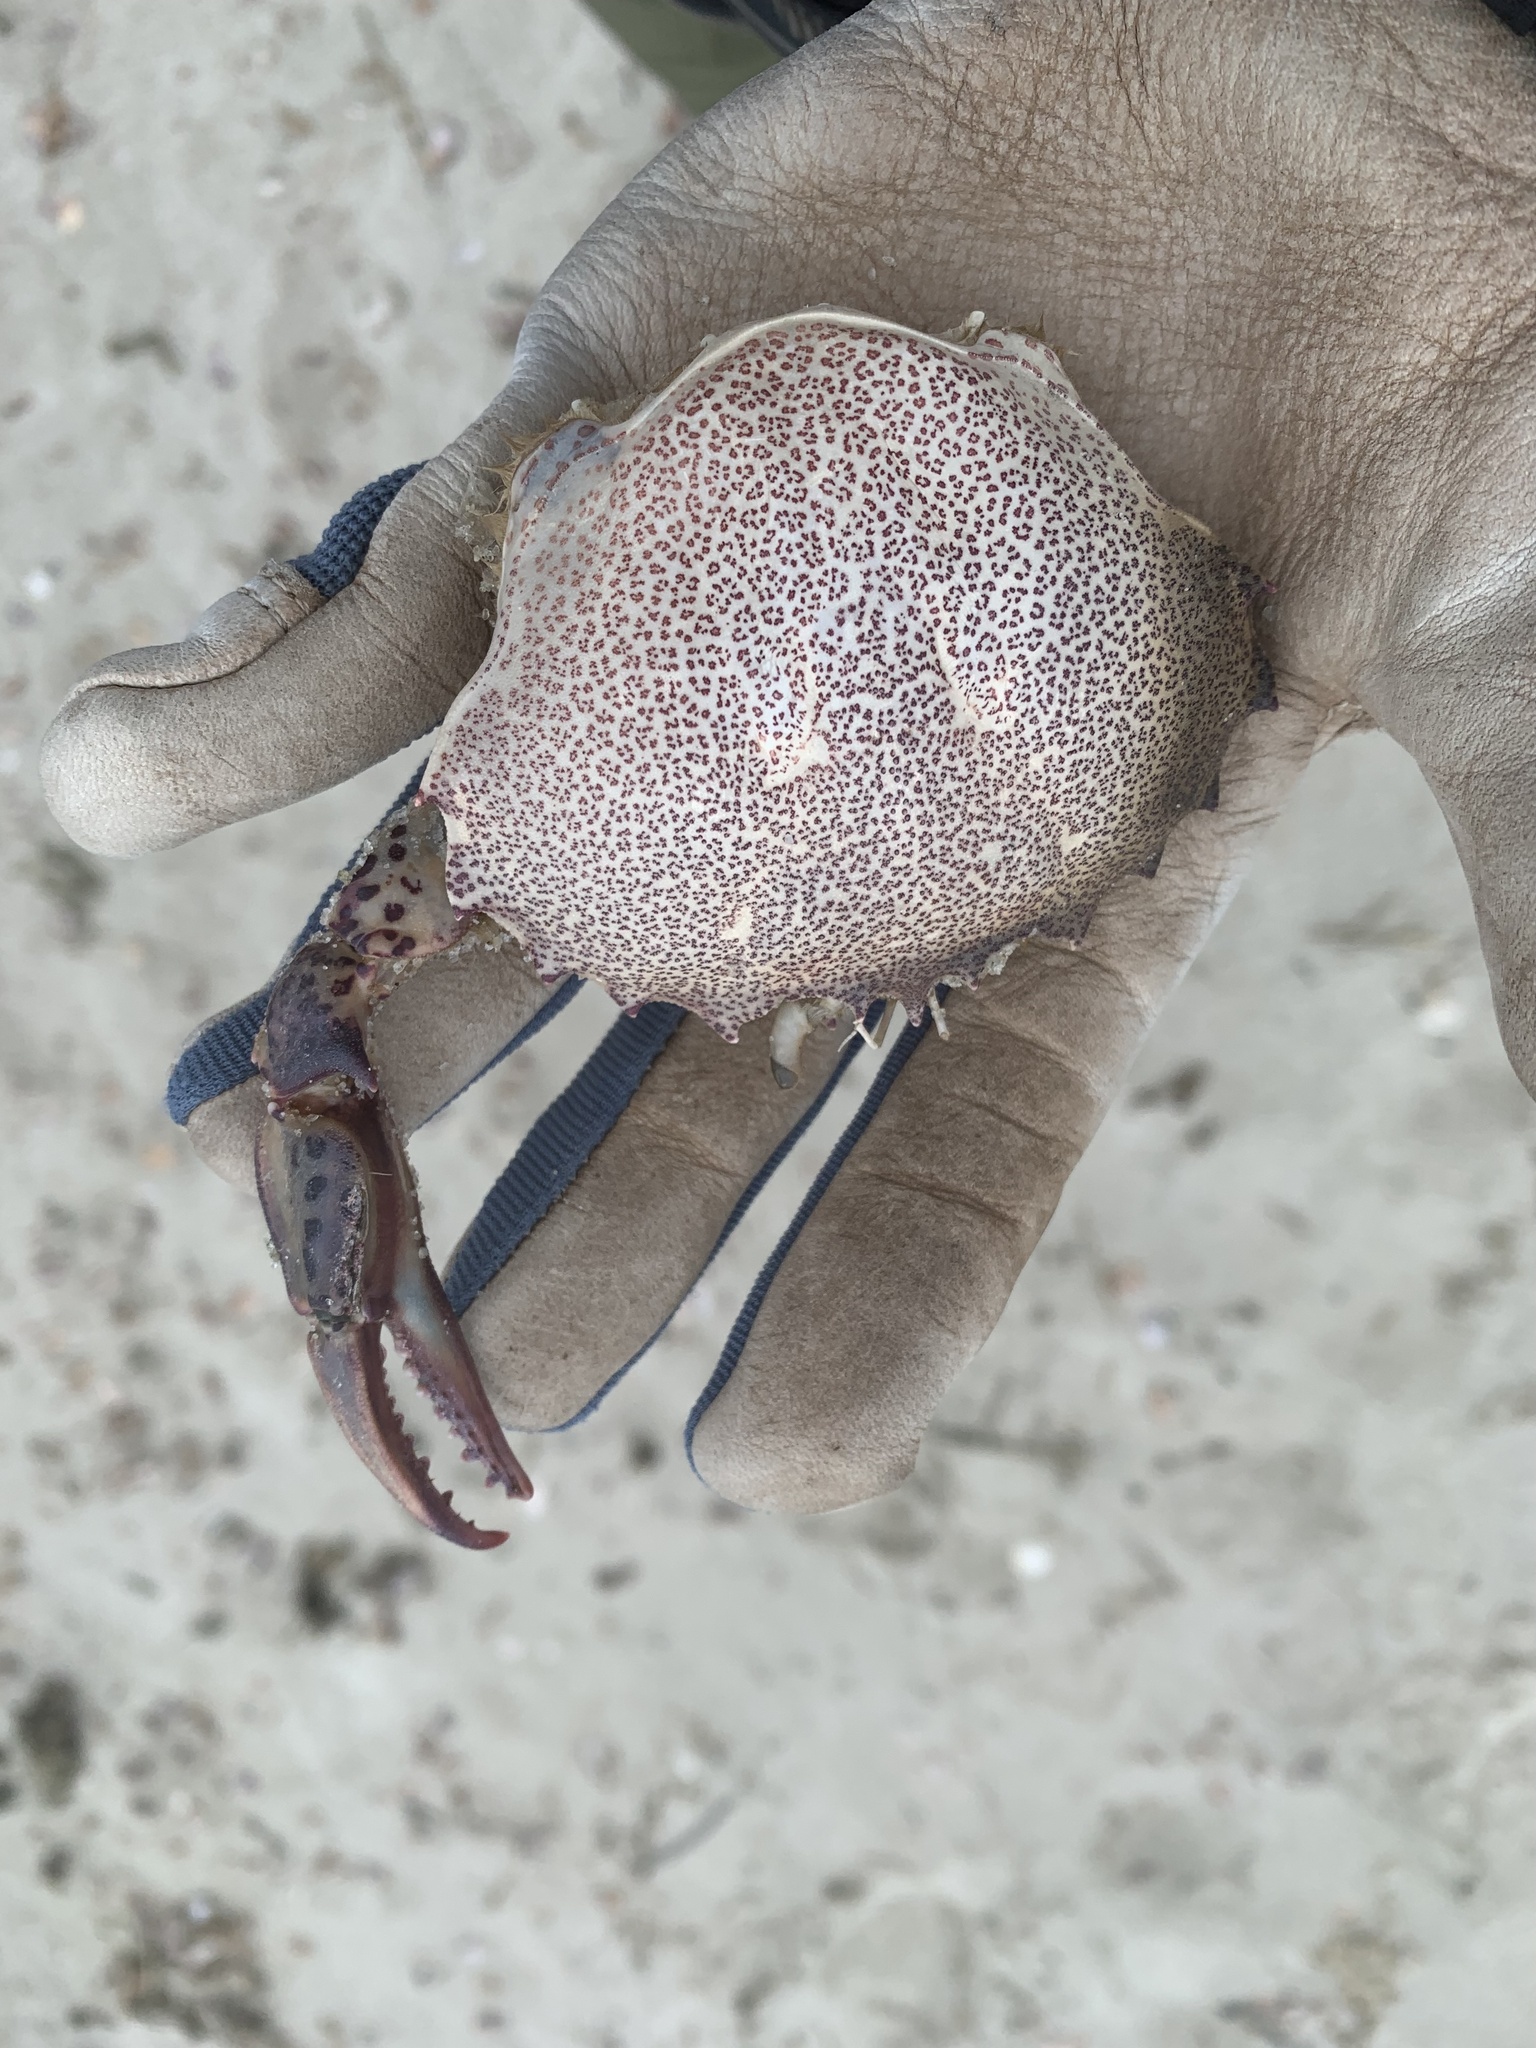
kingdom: Animalia
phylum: Arthropoda
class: Malacostraca
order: Decapoda
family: Ovalipidae
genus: Ovalipes
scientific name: Ovalipes ocellatus
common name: Lady crab
